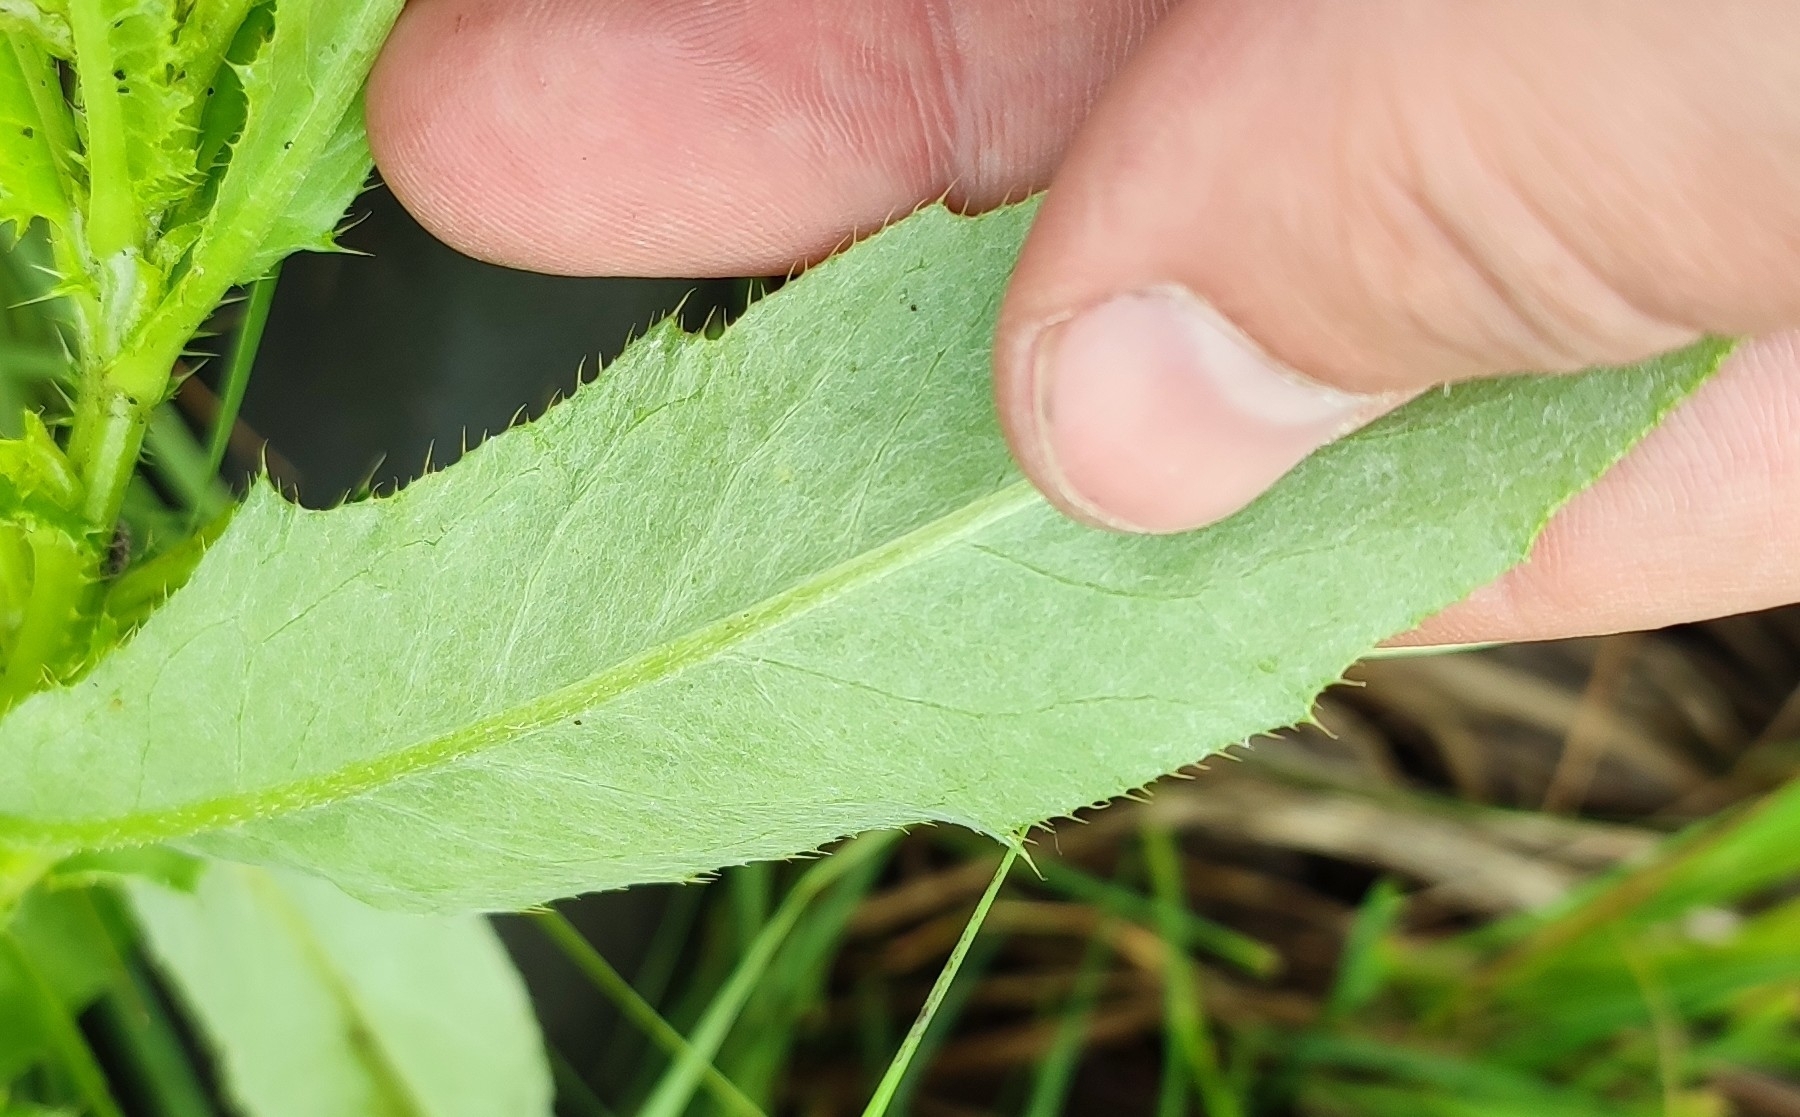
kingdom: Plantae
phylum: Tracheophyta
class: Magnoliopsida
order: Asterales
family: Asteraceae
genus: Cirsium
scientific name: Cirsium arvense
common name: Creeping thistle
